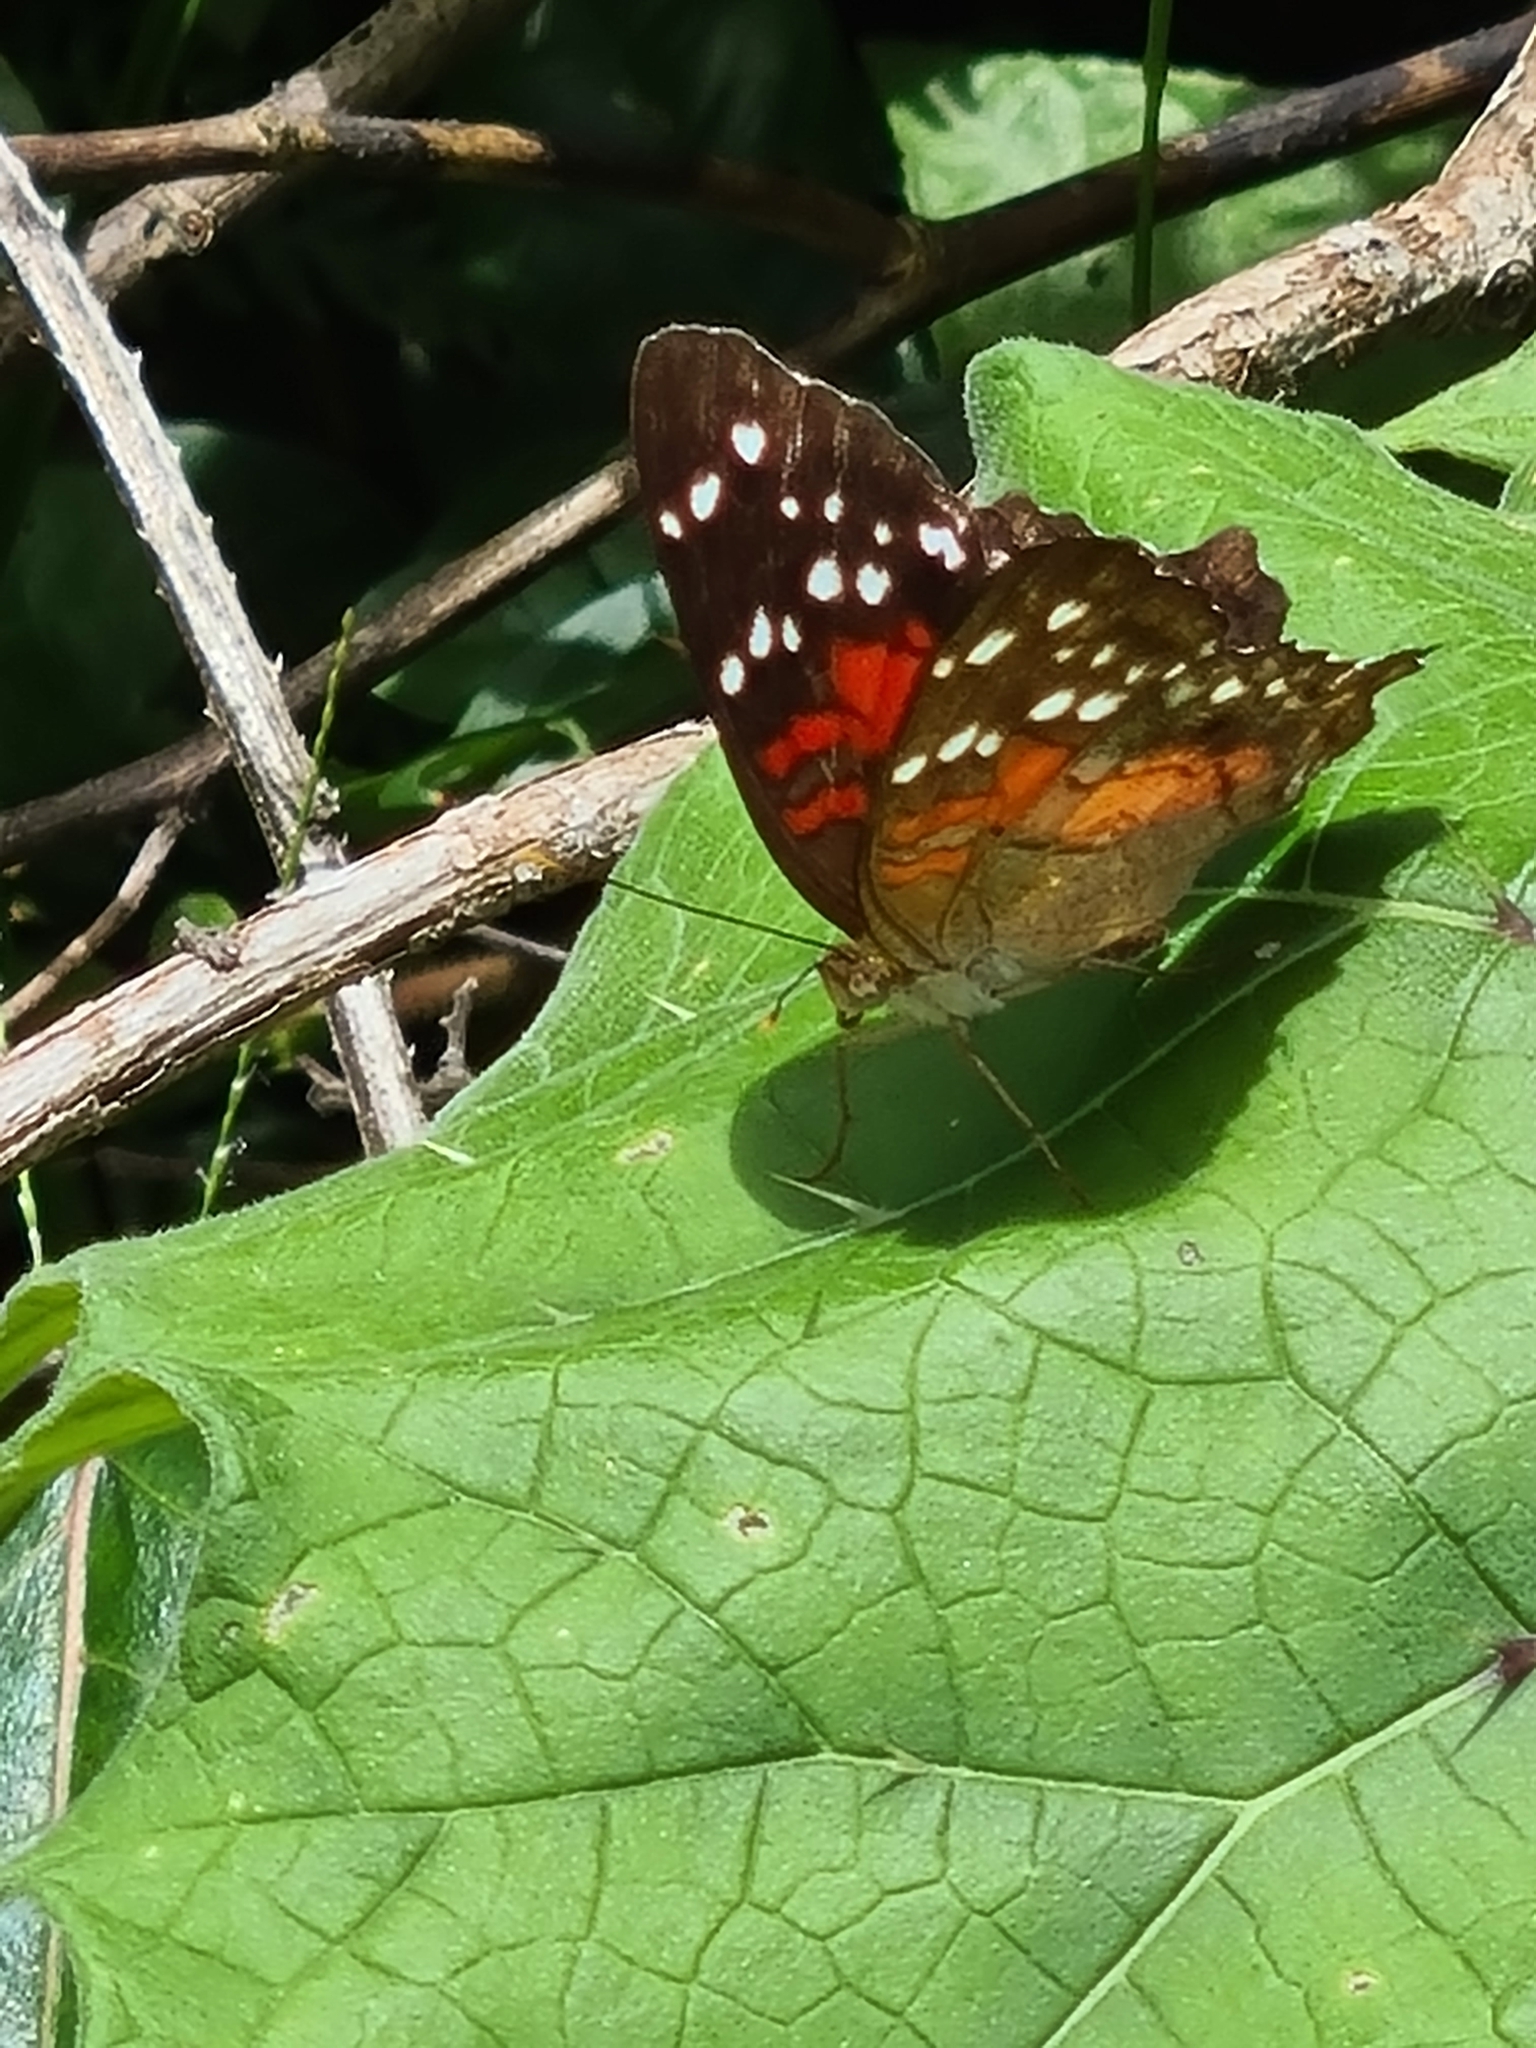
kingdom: Animalia
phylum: Arthropoda
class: Insecta
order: Lepidoptera
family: Nymphalidae
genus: Anartia
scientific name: Anartia amathea
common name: Red peacock
